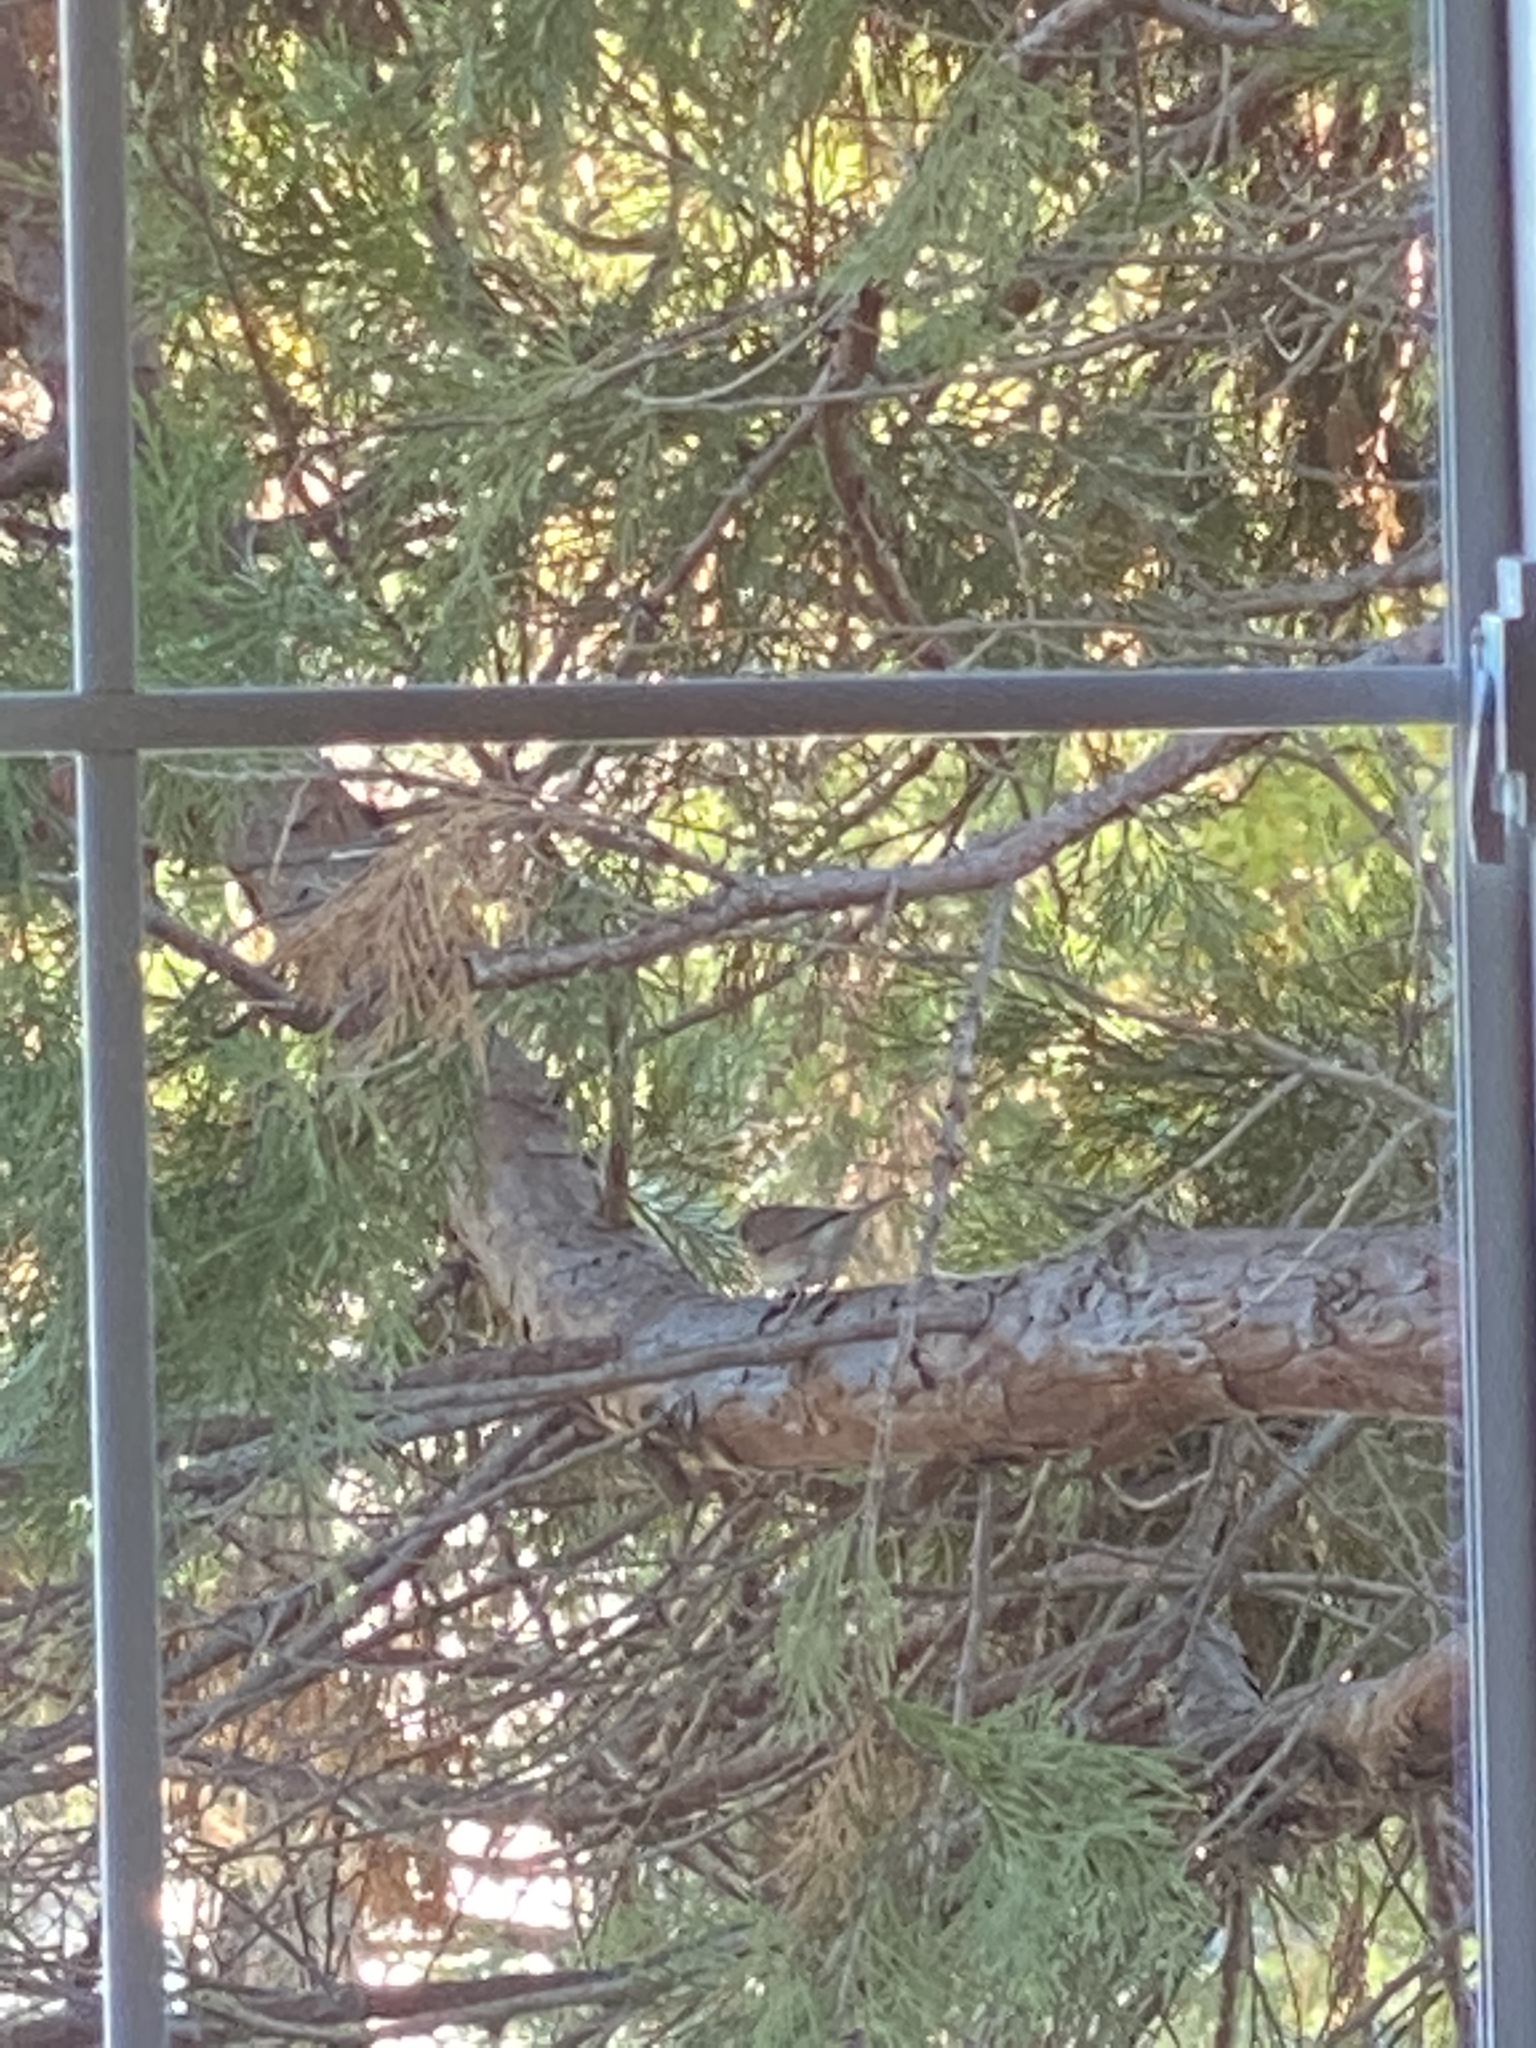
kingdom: Animalia
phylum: Chordata
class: Aves
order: Passeriformes
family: Passerellidae
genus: Junco
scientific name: Junco hyemalis
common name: Dark-eyed junco
